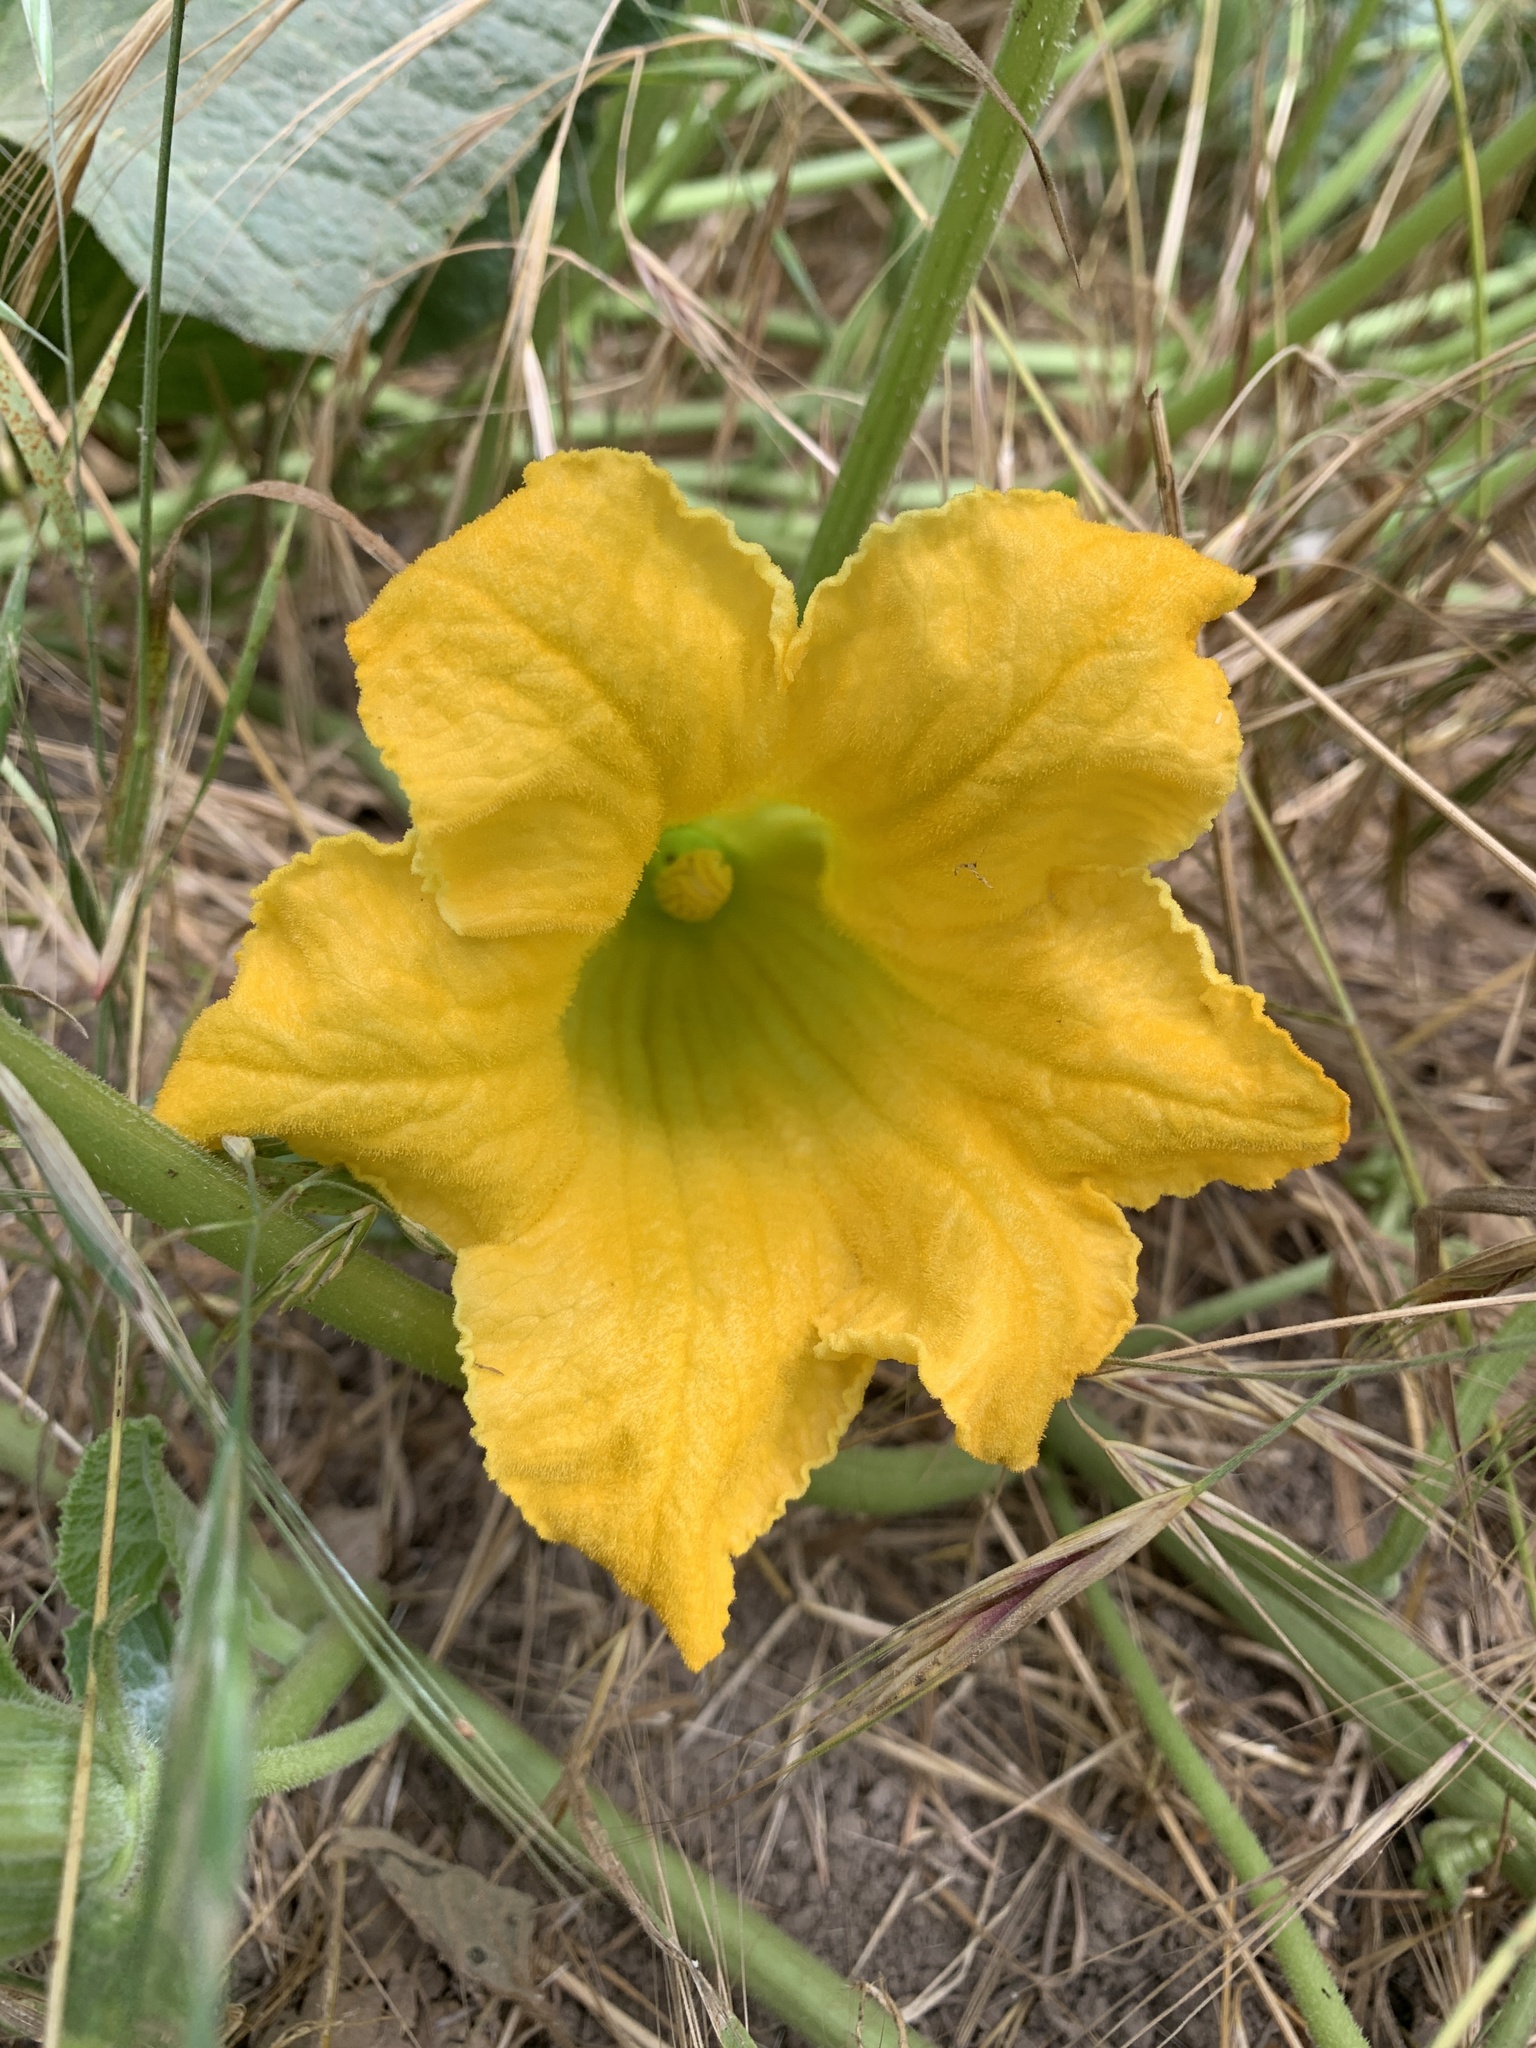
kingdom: Plantae
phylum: Tracheophyta
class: Magnoliopsida
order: Cucurbitales
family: Cucurbitaceae
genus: Cucurbita
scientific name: Cucurbita foetidissima
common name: Buffalo gourd
